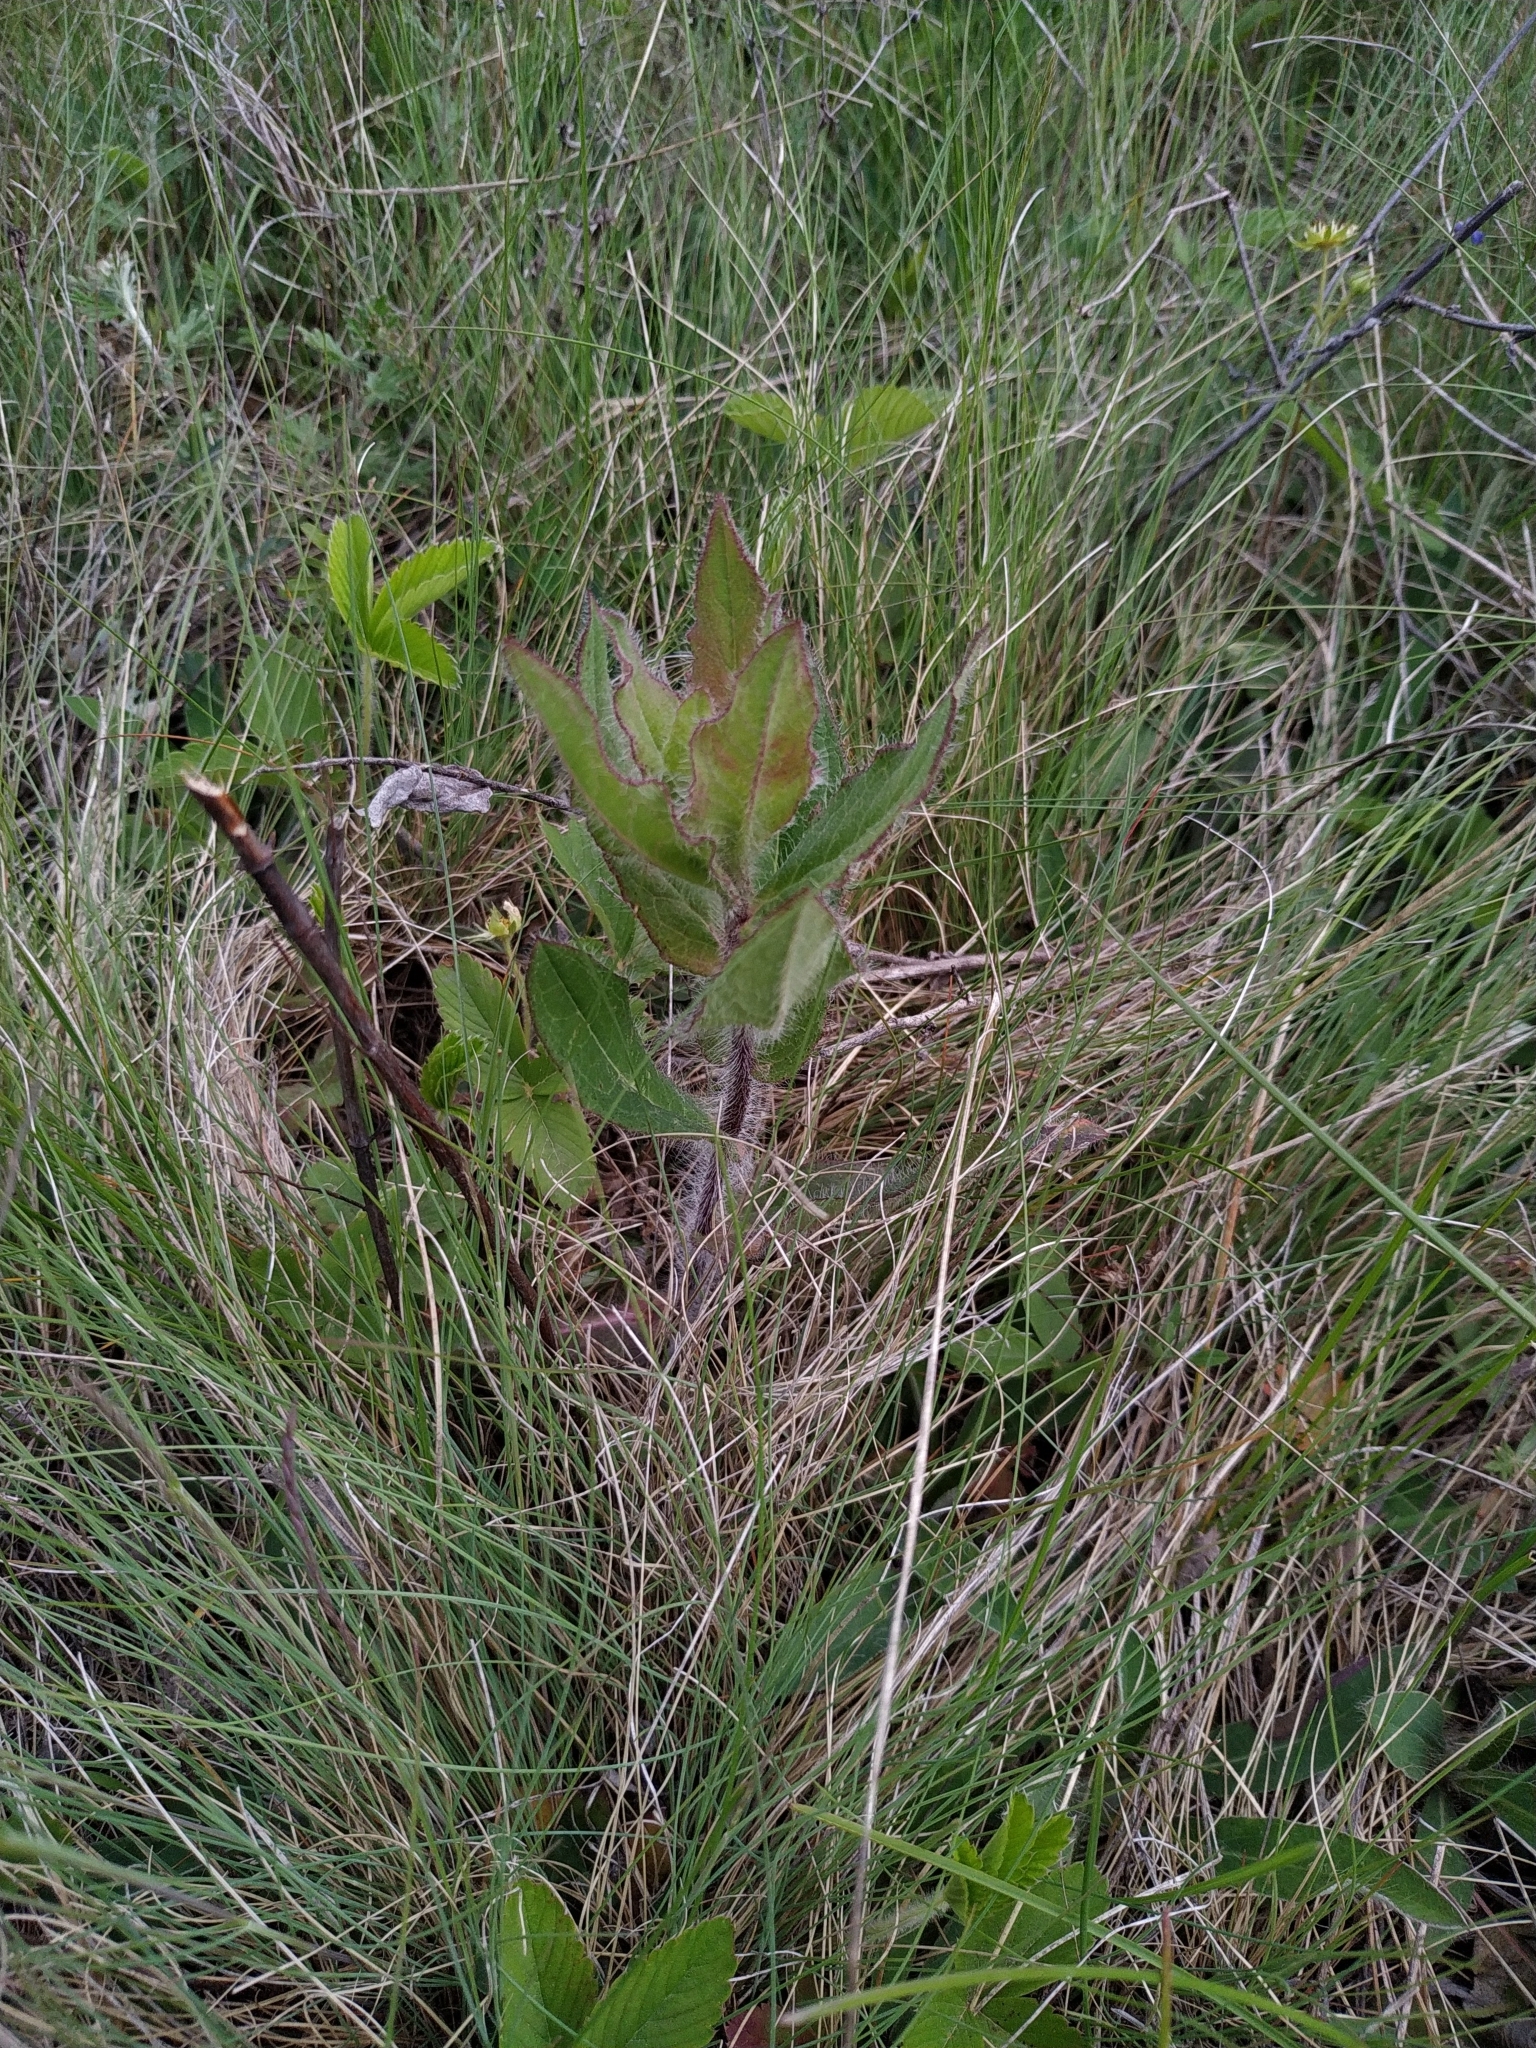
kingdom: Plantae
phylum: Tracheophyta
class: Magnoliopsida
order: Asterales
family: Asteraceae
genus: Hieracium
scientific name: Hieracium virosum
